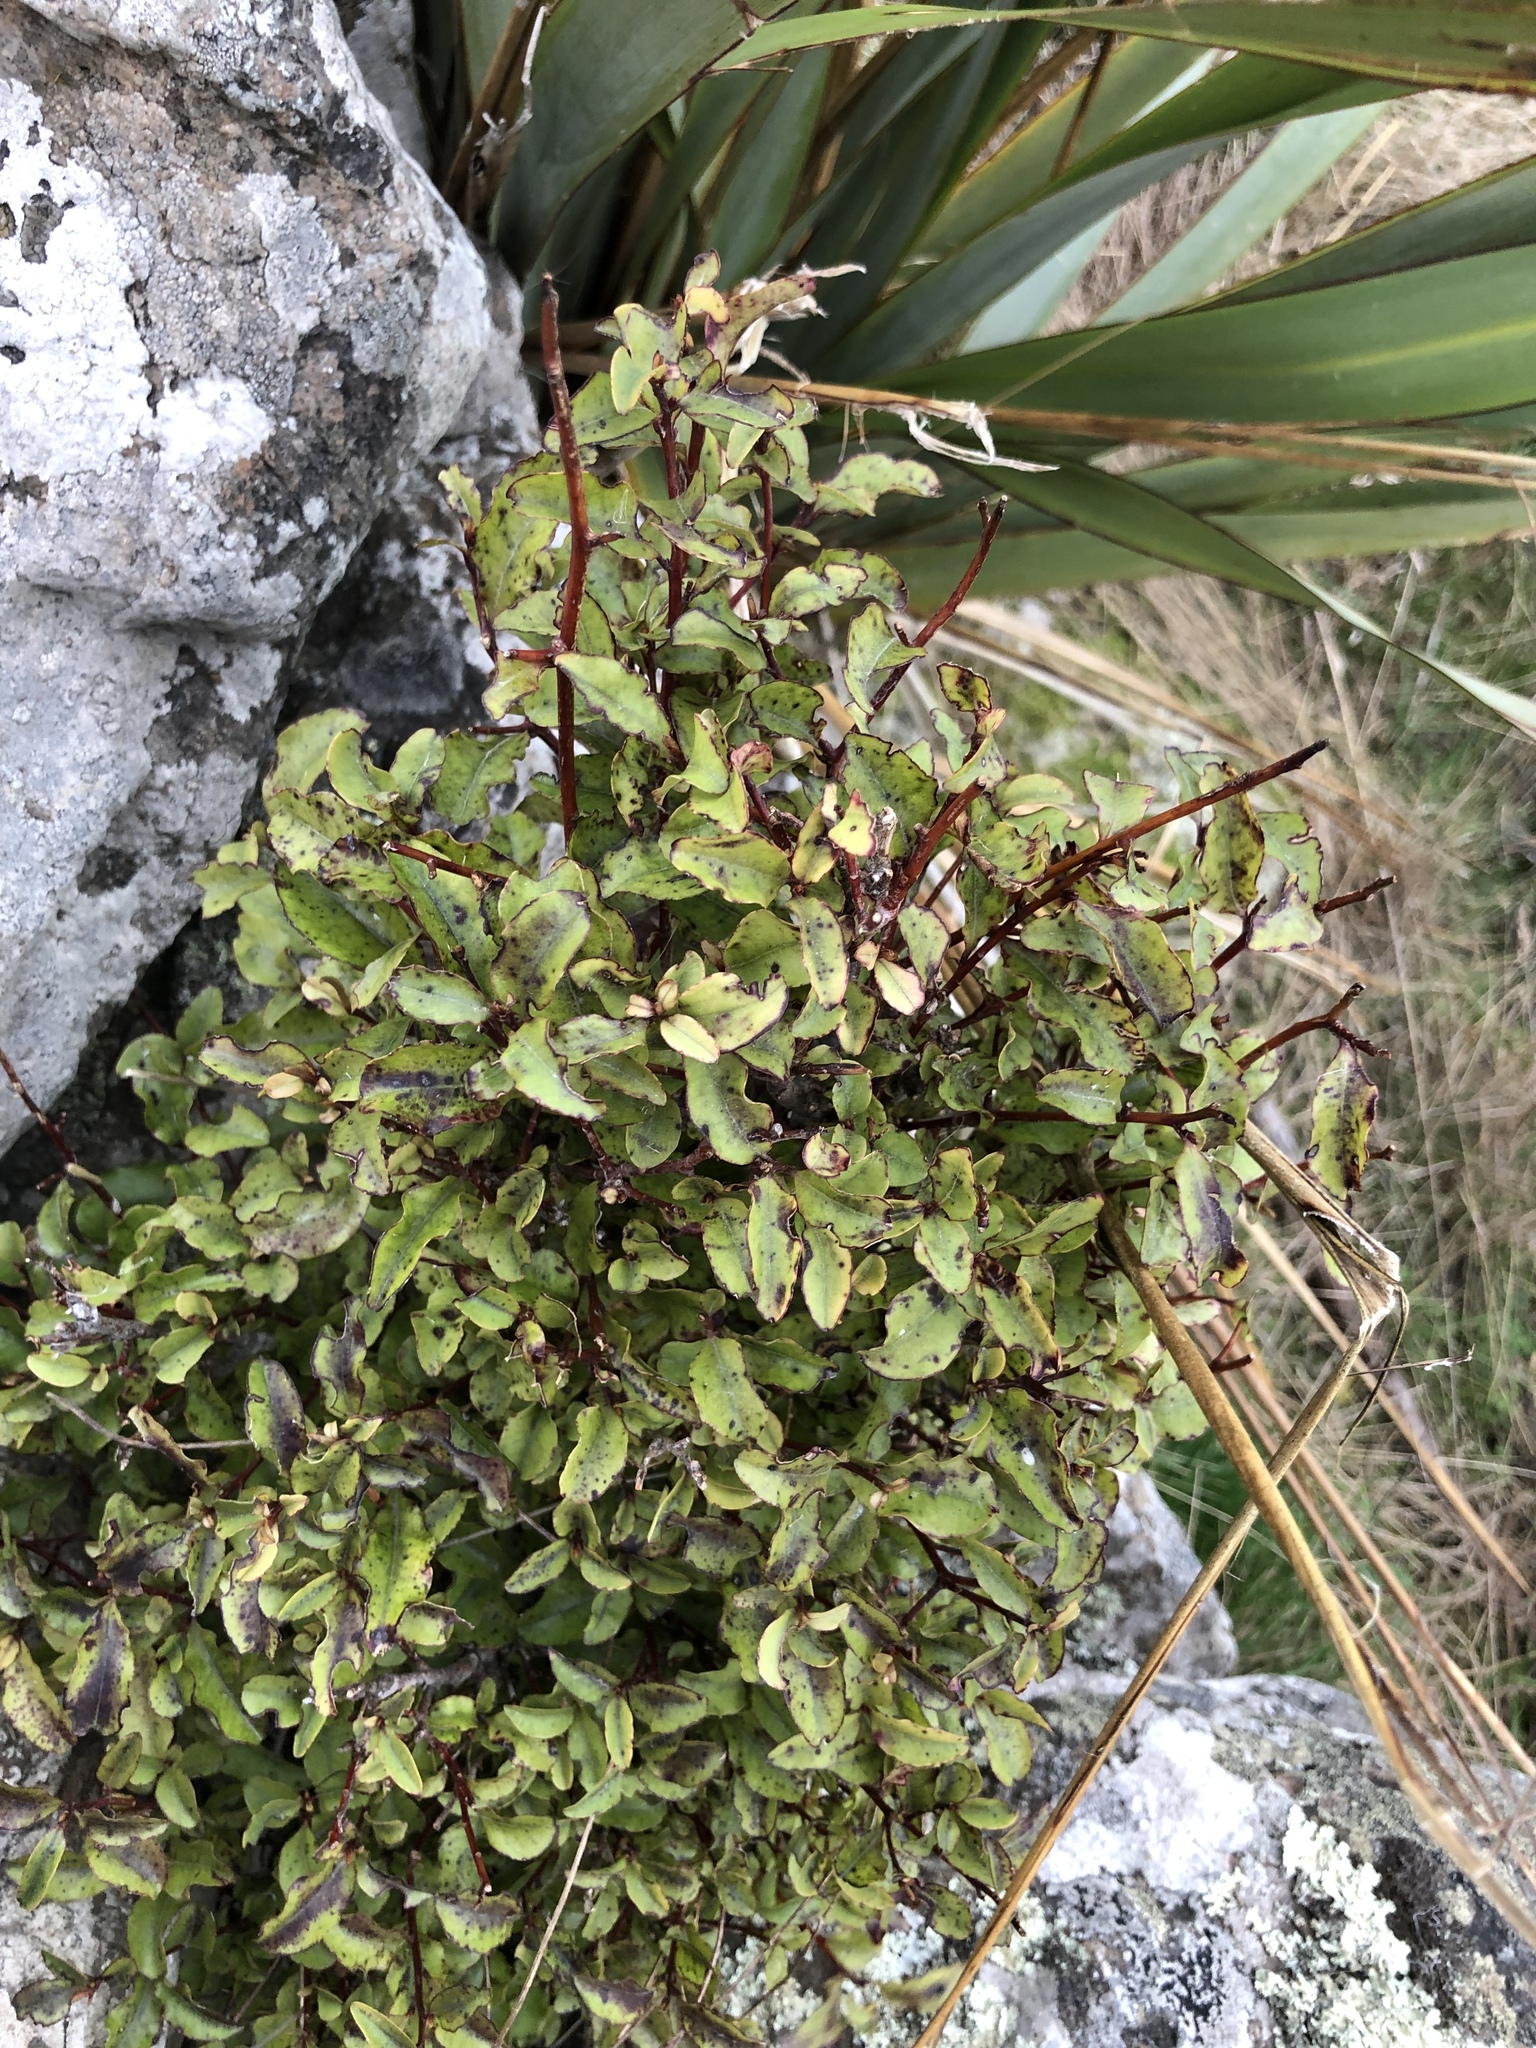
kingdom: Plantae
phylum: Tracheophyta
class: Magnoliopsida
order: Ericales
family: Primulaceae
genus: Myrsine
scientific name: Myrsine australis
